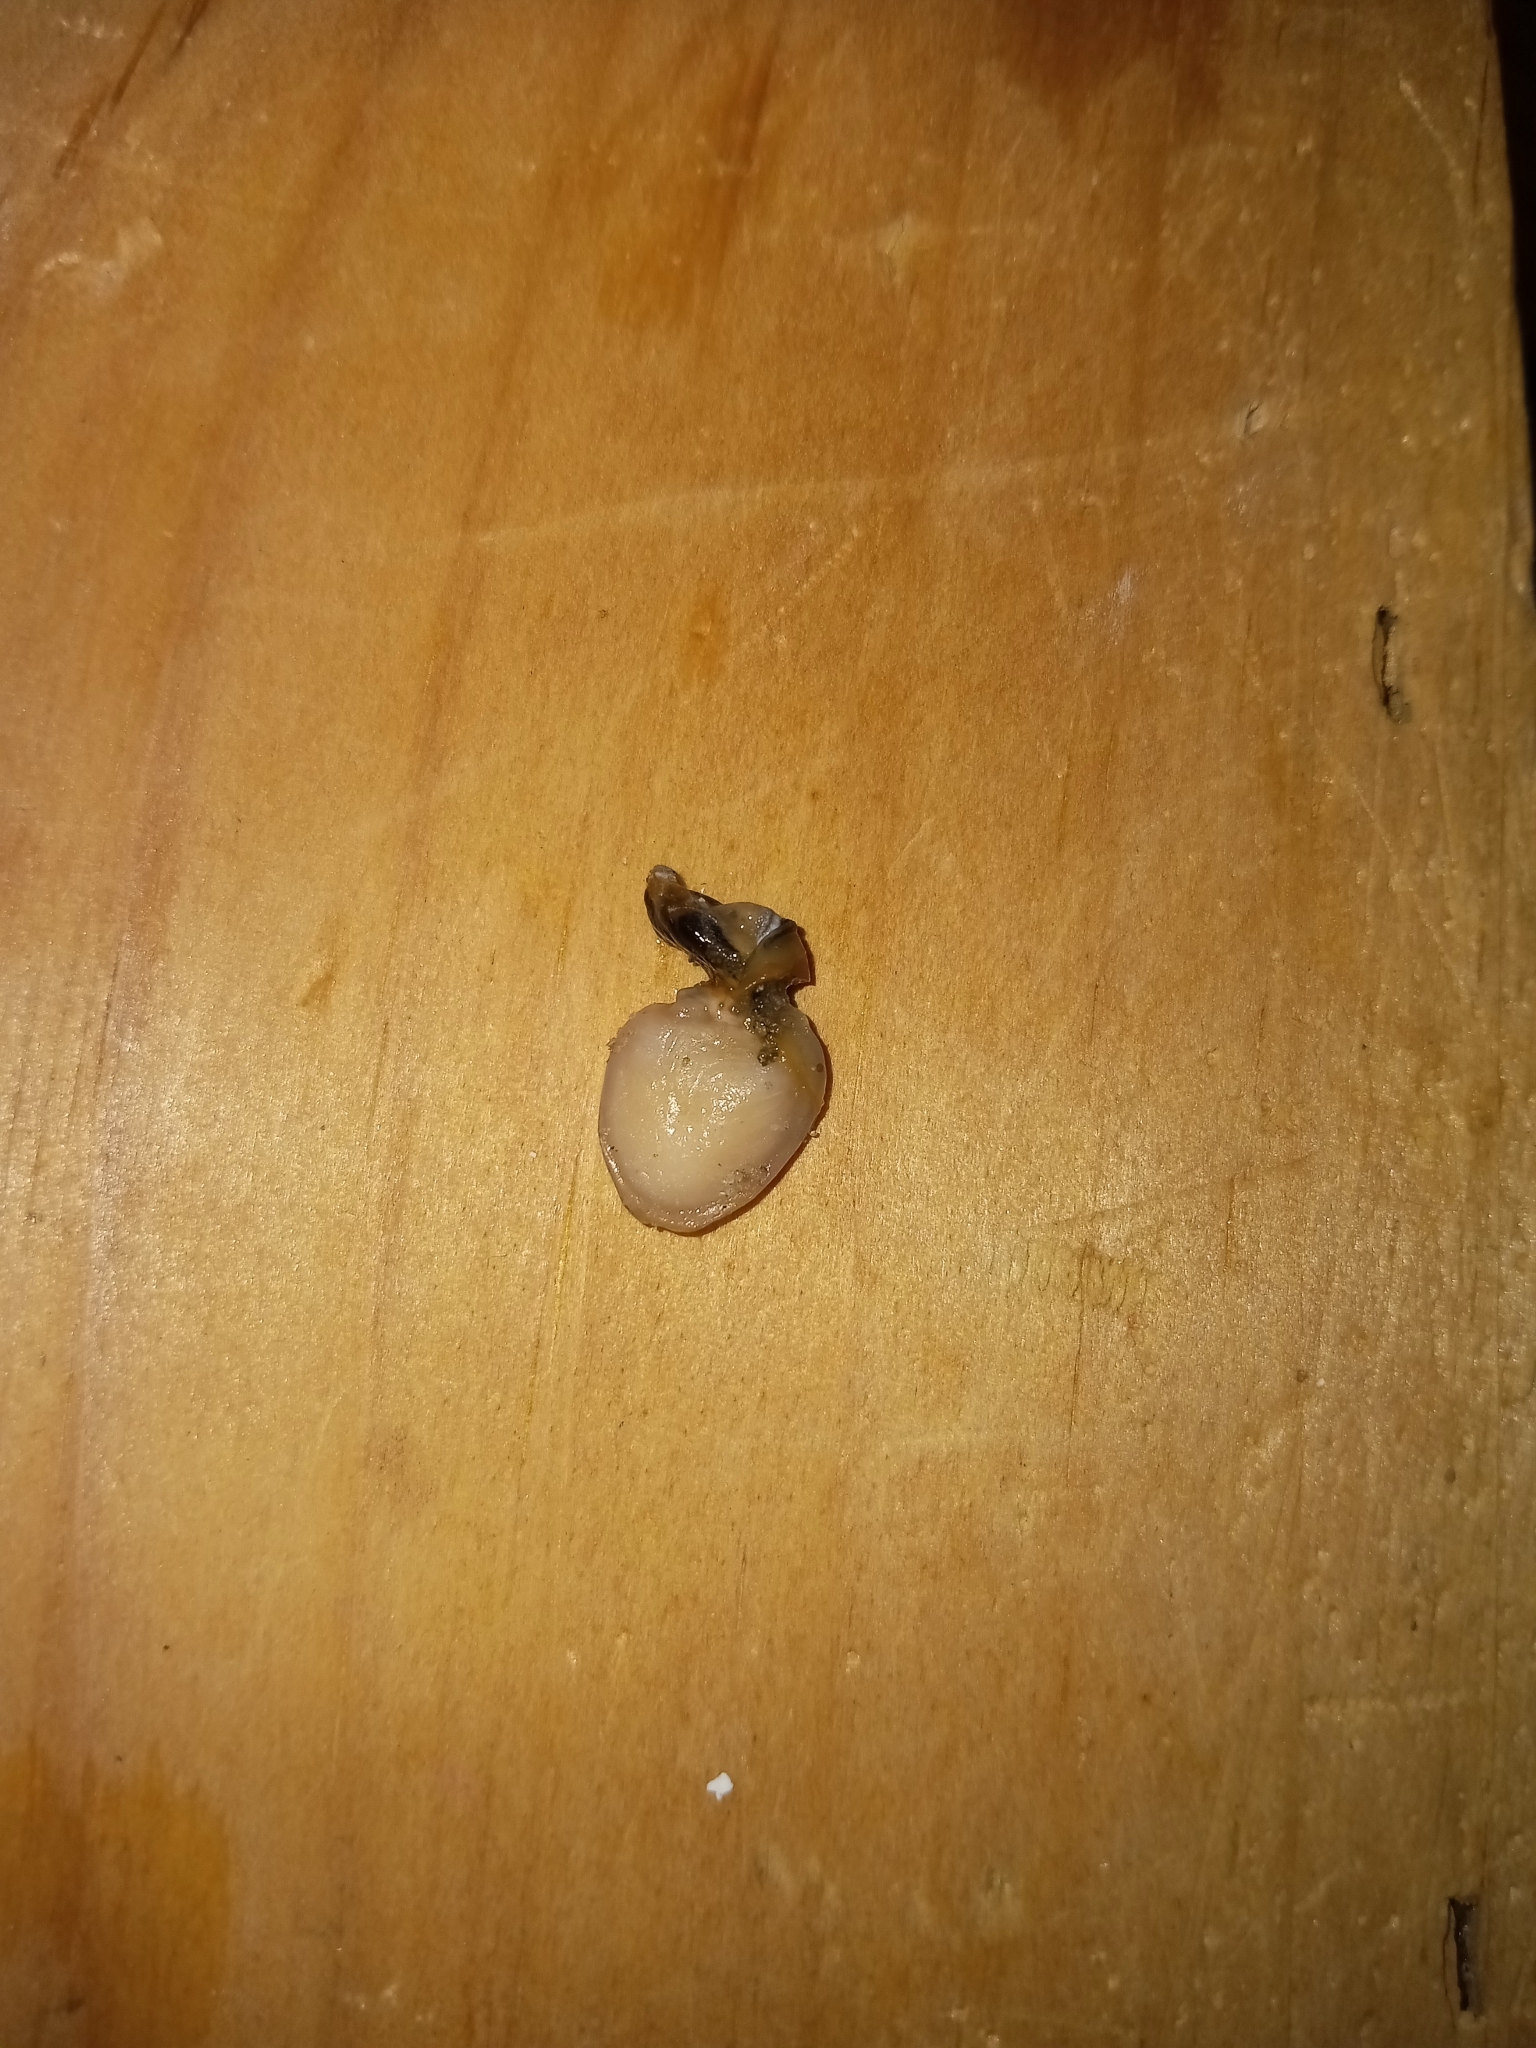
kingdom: Animalia
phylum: Mollusca
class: Gastropoda
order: Littorinimorpha
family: Calyptraeidae
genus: Crepidula
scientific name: Crepidula fornicata
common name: Slipper limpet
